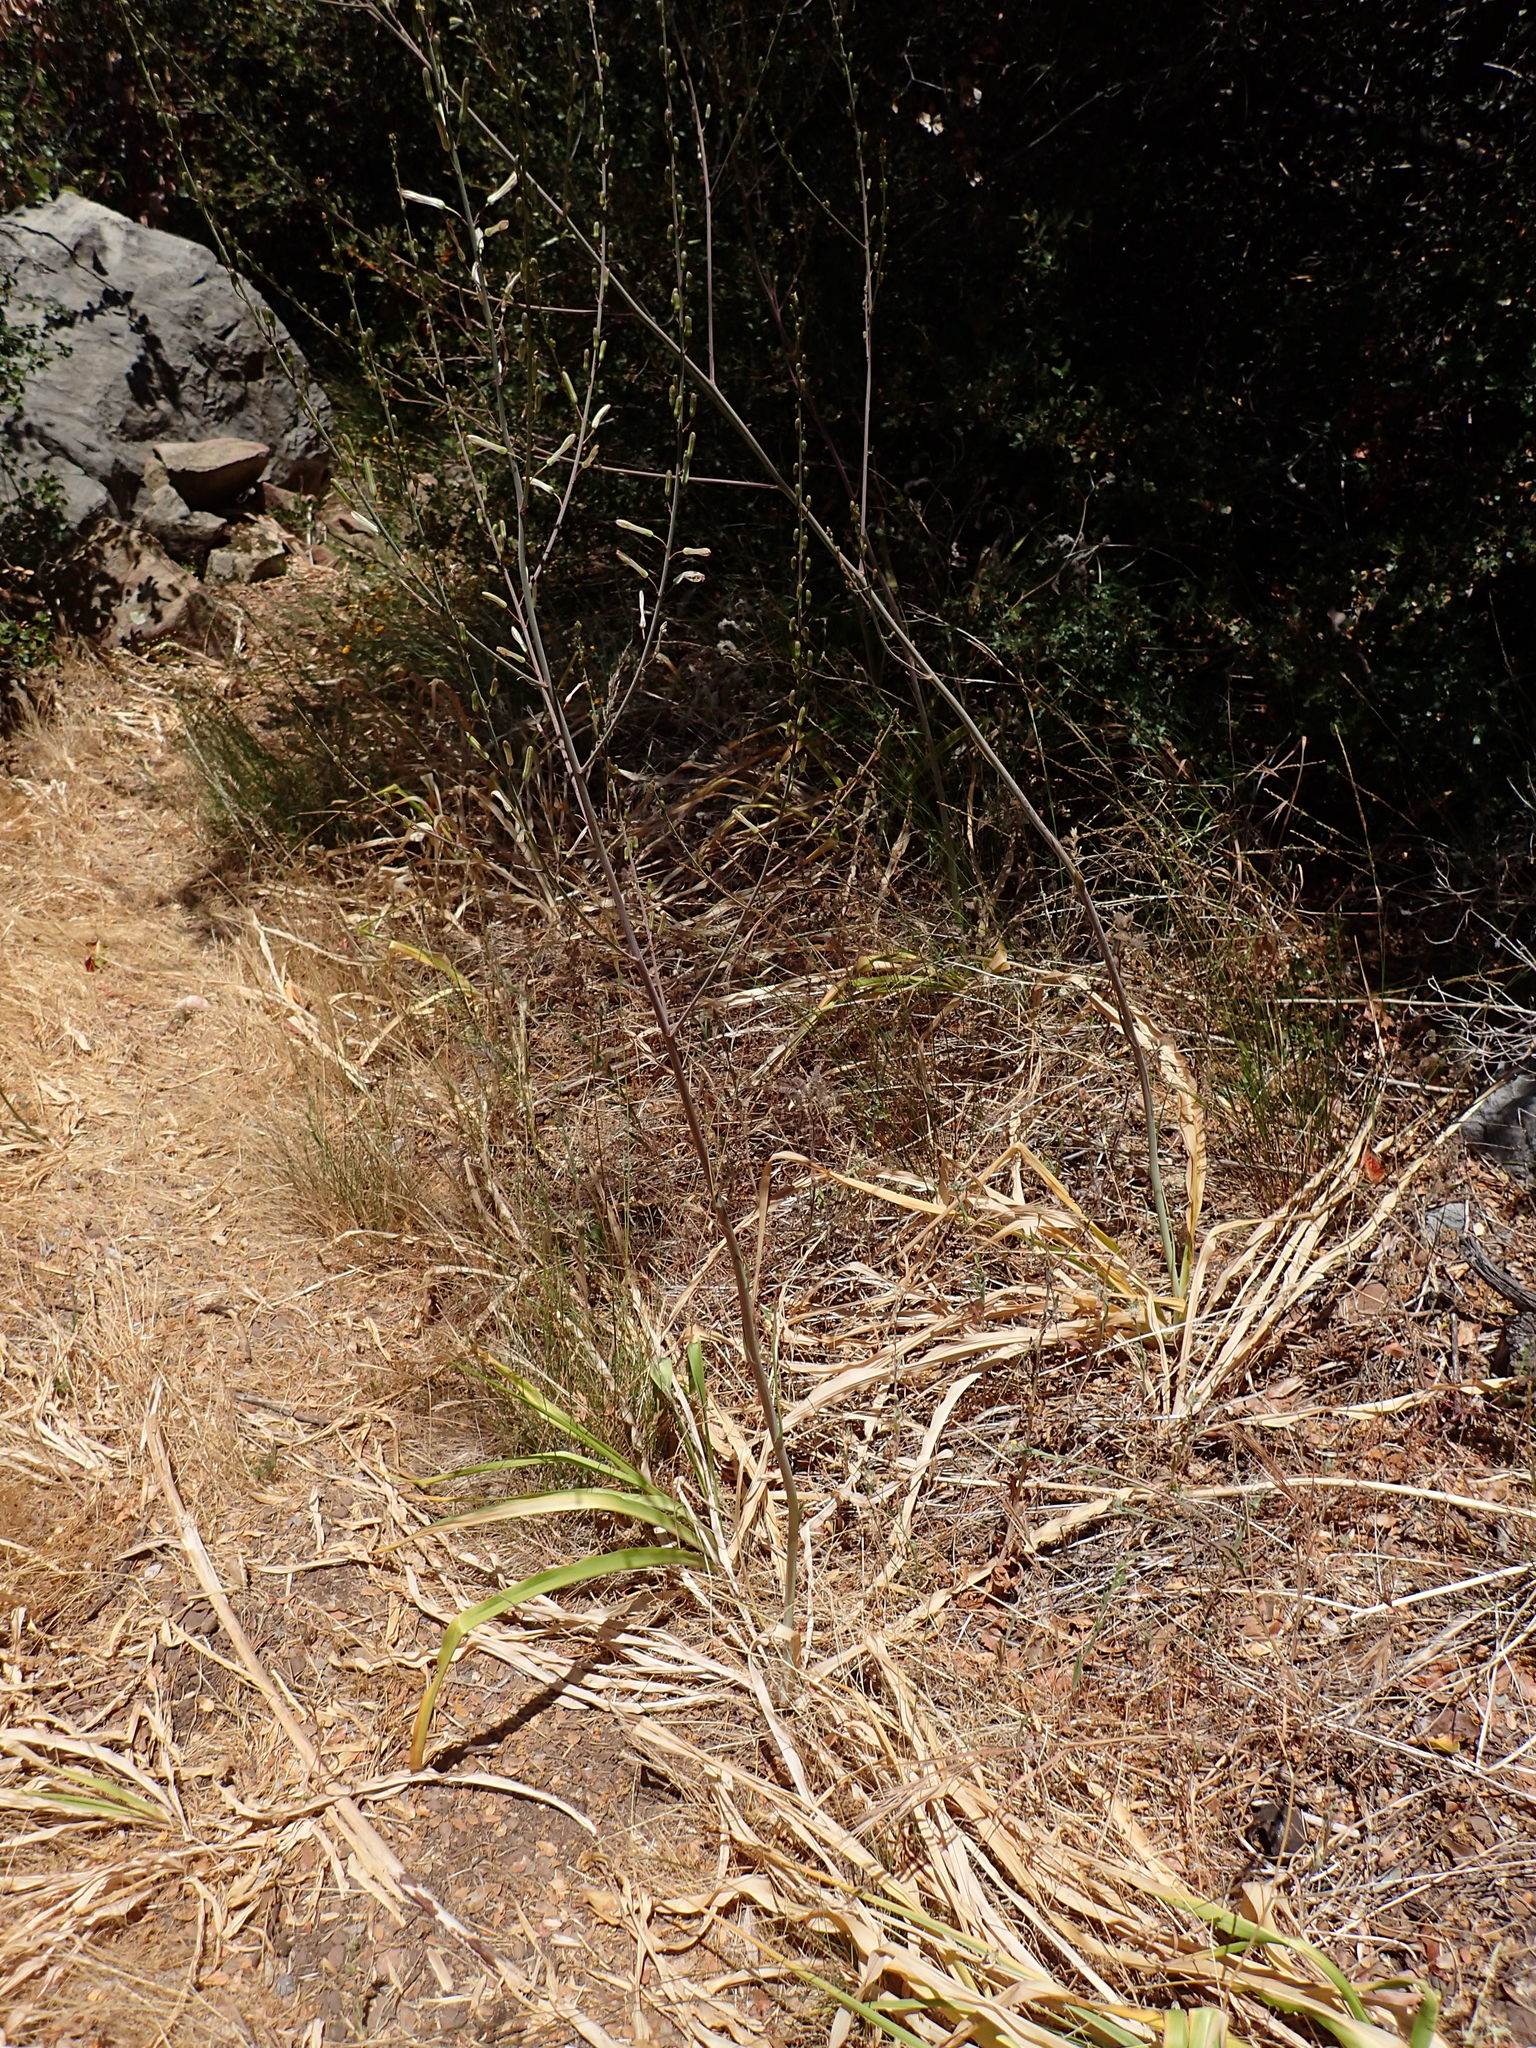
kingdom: Plantae
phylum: Tracheophyta
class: Liliopsida
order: Asparagales
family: Asparagaceae
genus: Chlorogalum
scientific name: Chlorogalum pomeridianum
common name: Amole
